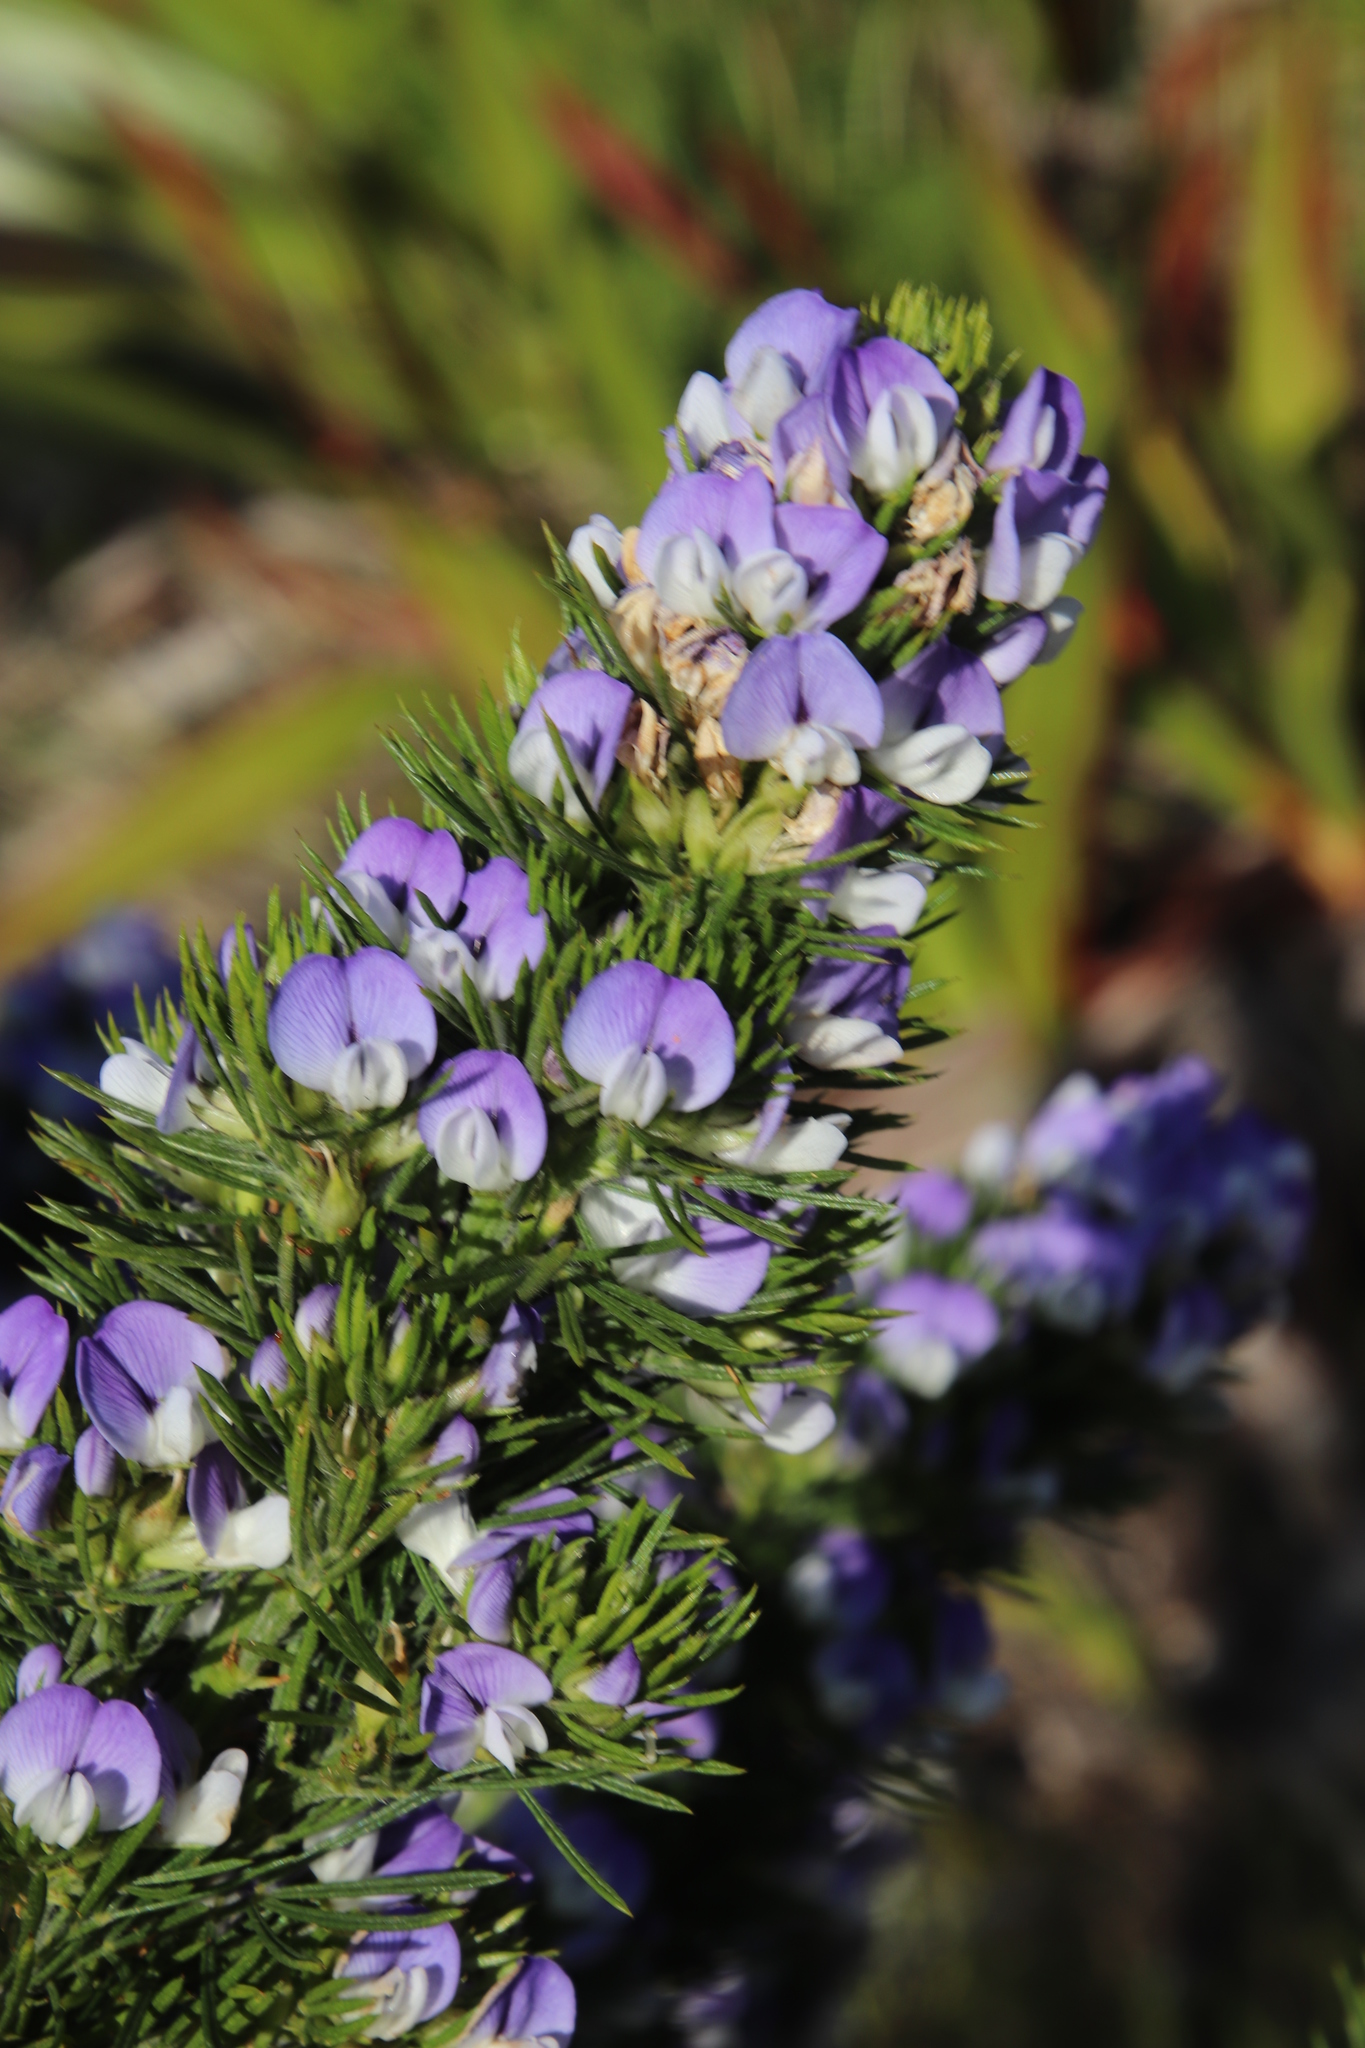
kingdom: Plantae
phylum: Tracheophyta
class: Magnoliopsida
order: Fabales
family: Fabaceae
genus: Psoralea
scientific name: Psoralea pinnata
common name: African scurfpea
